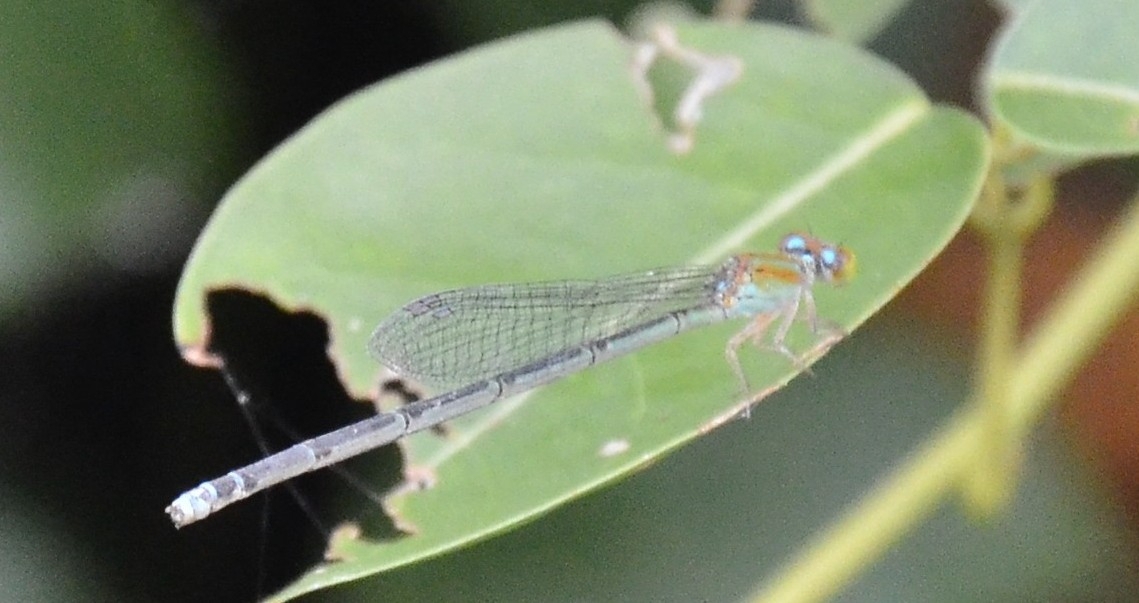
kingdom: Animalia
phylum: Arthropoda
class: Insecta
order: Odonata
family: Coenagrionidae
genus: Pseudagrion
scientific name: Pseudagrion microcephalum
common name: Blue riverdamsel
